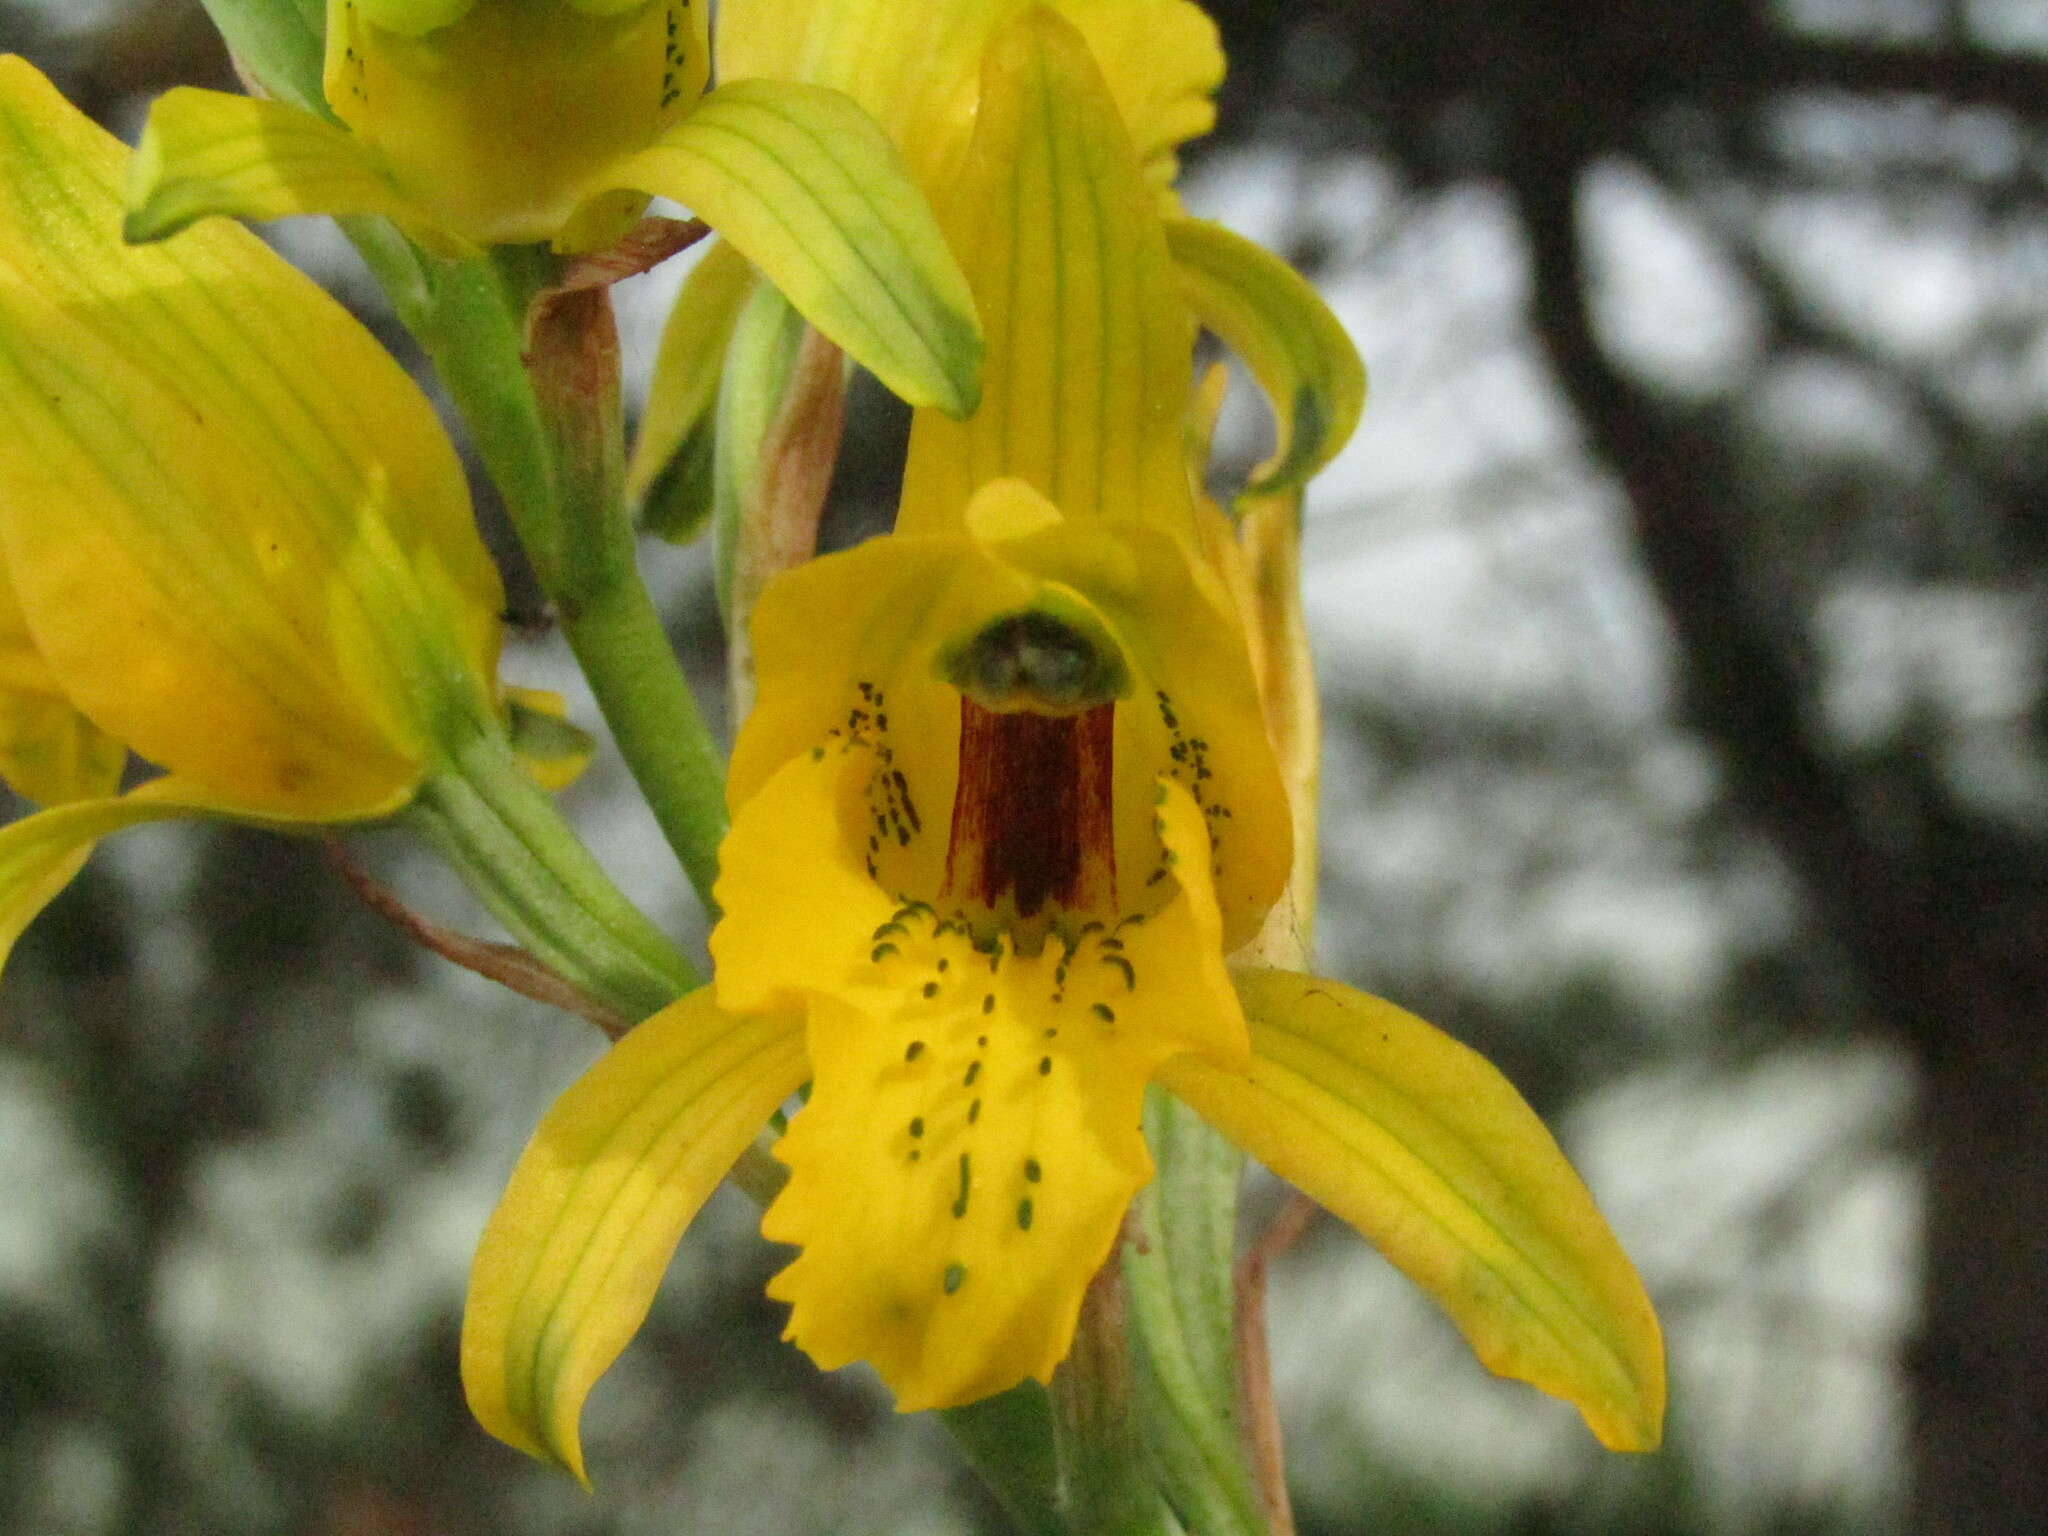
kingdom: Plantae
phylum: Tracheophyta
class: Liliopsida
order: Asparagales
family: Orchidaceae
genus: Chloraea
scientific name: Chloraea gavilu
